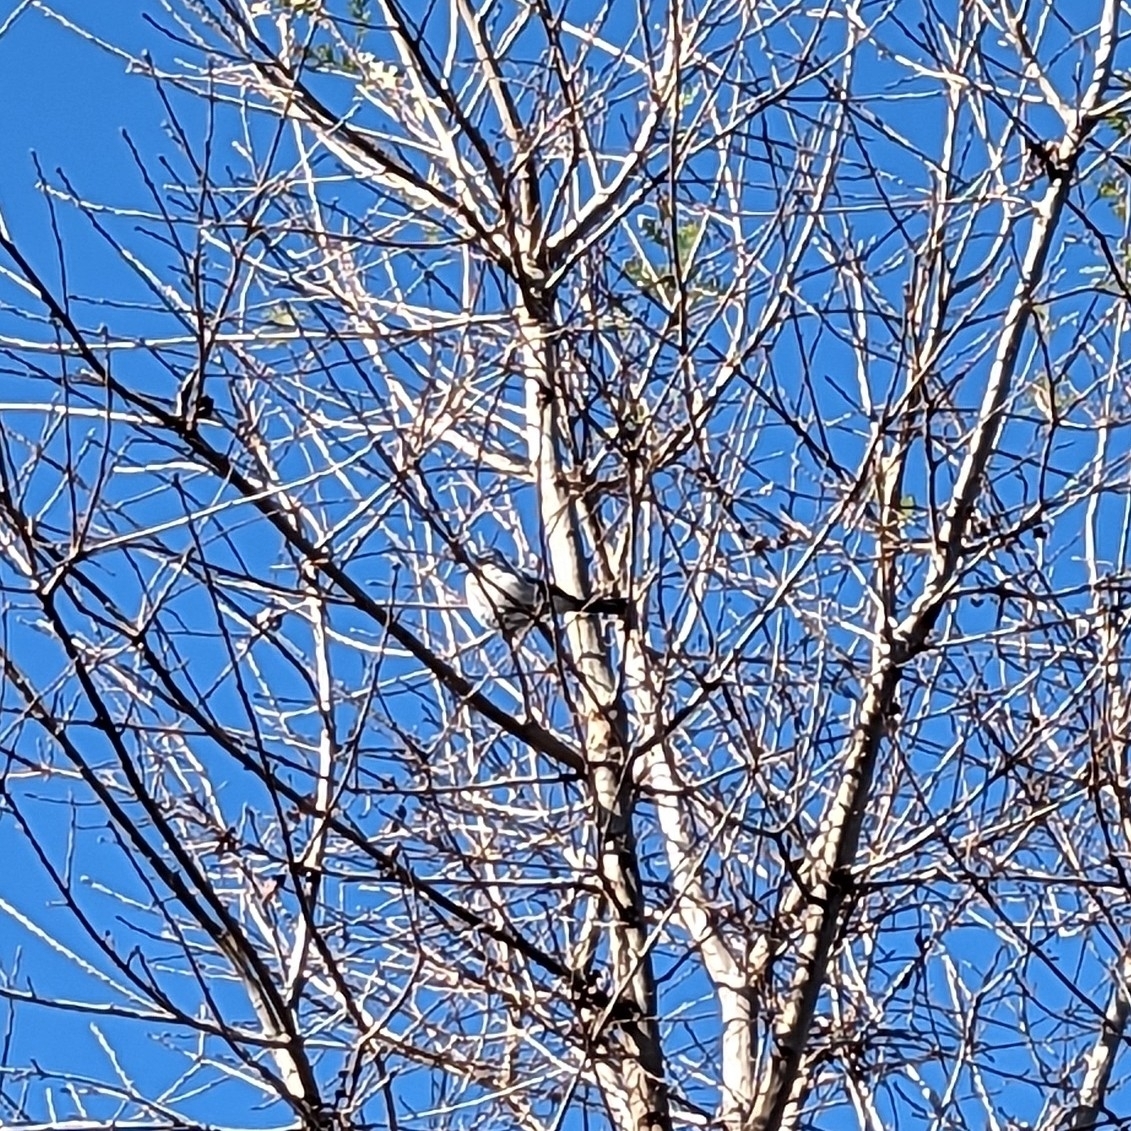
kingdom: Animalia
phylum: Chordata
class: Aves
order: Passeriformes
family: Corvidae
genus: Aphelocoma
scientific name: Aphelocoma californica
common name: California scrub-jay
